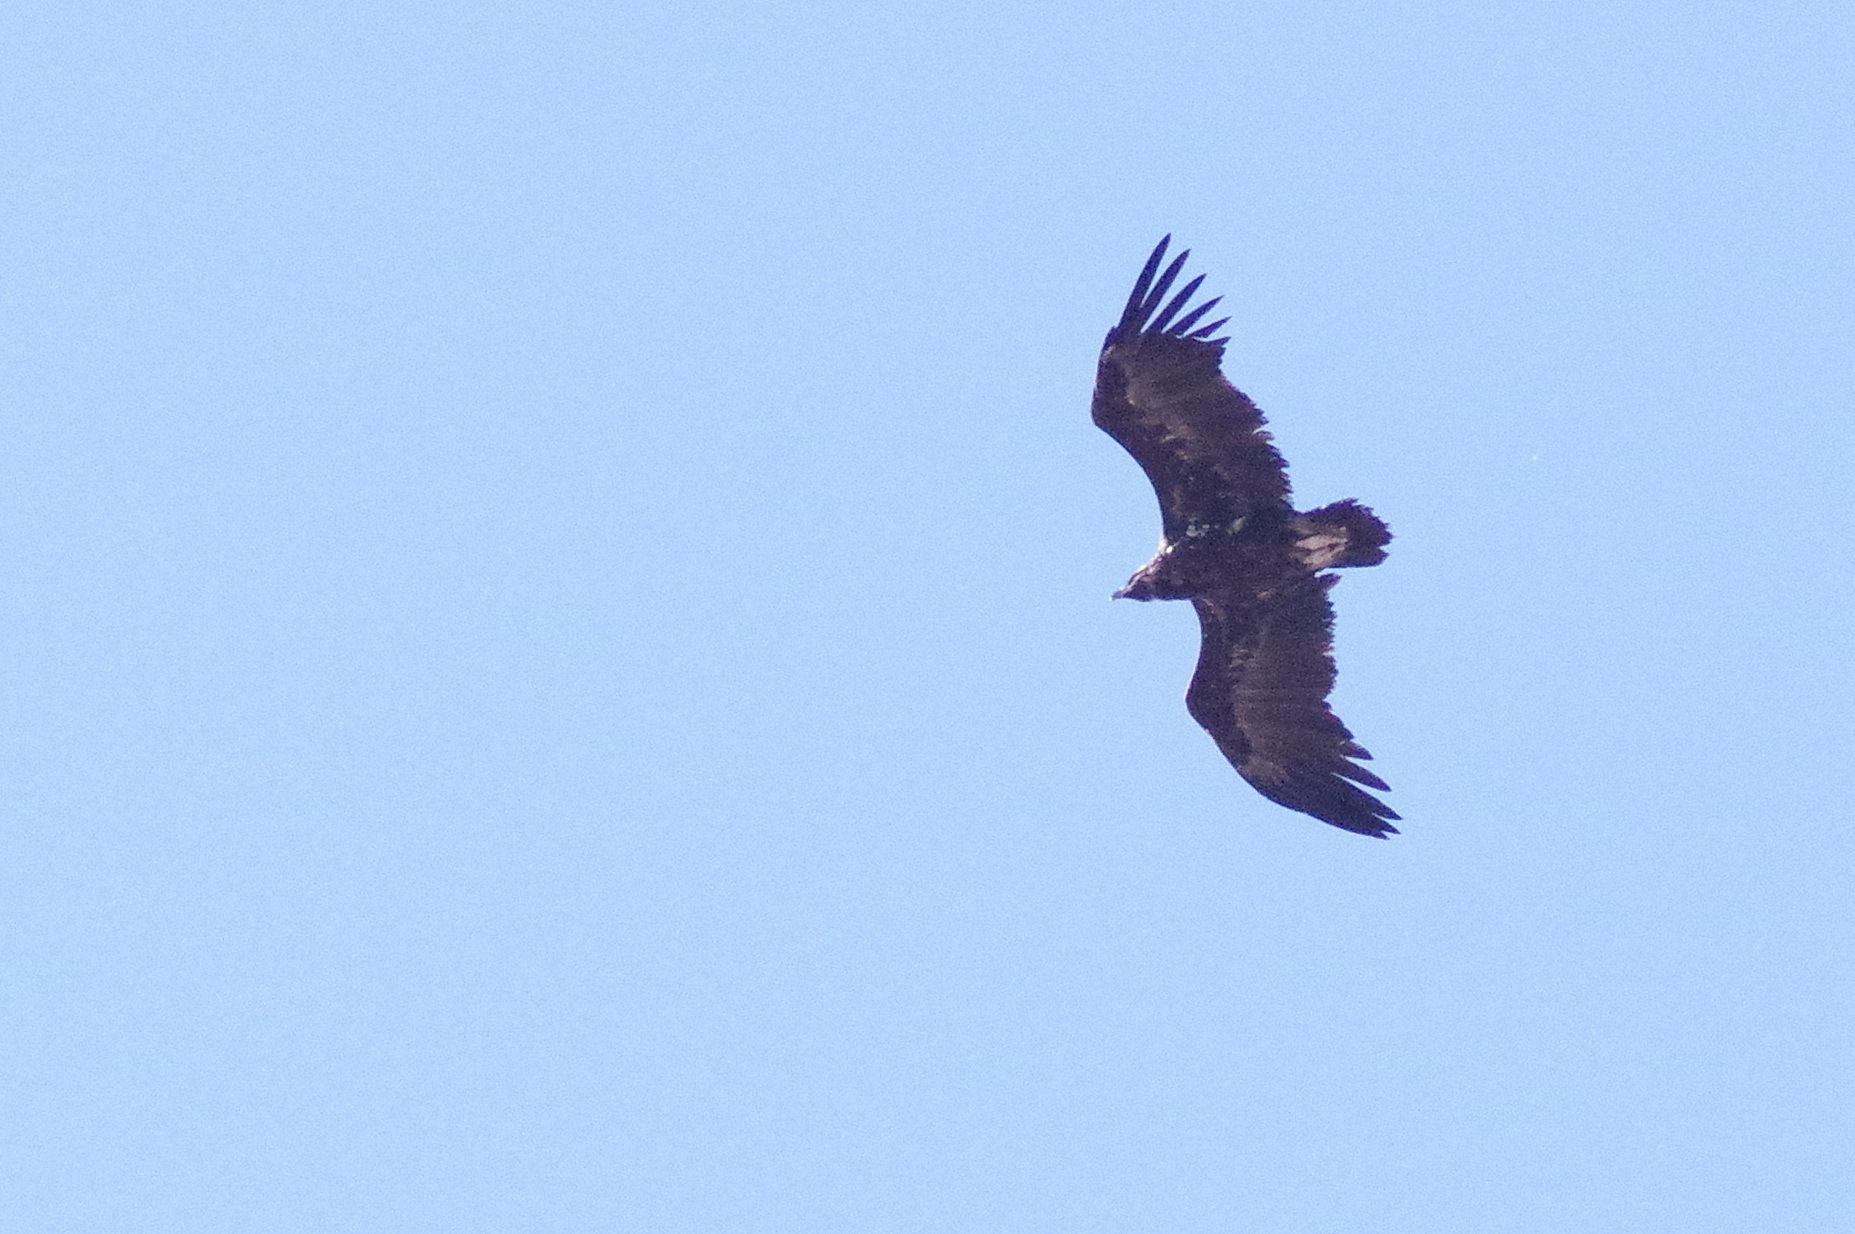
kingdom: Animalia
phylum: Chordata
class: Aves
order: Accipitriformes
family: Accipitridae
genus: Aegypius
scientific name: Aegypius monachus
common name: Cinereous vulture
